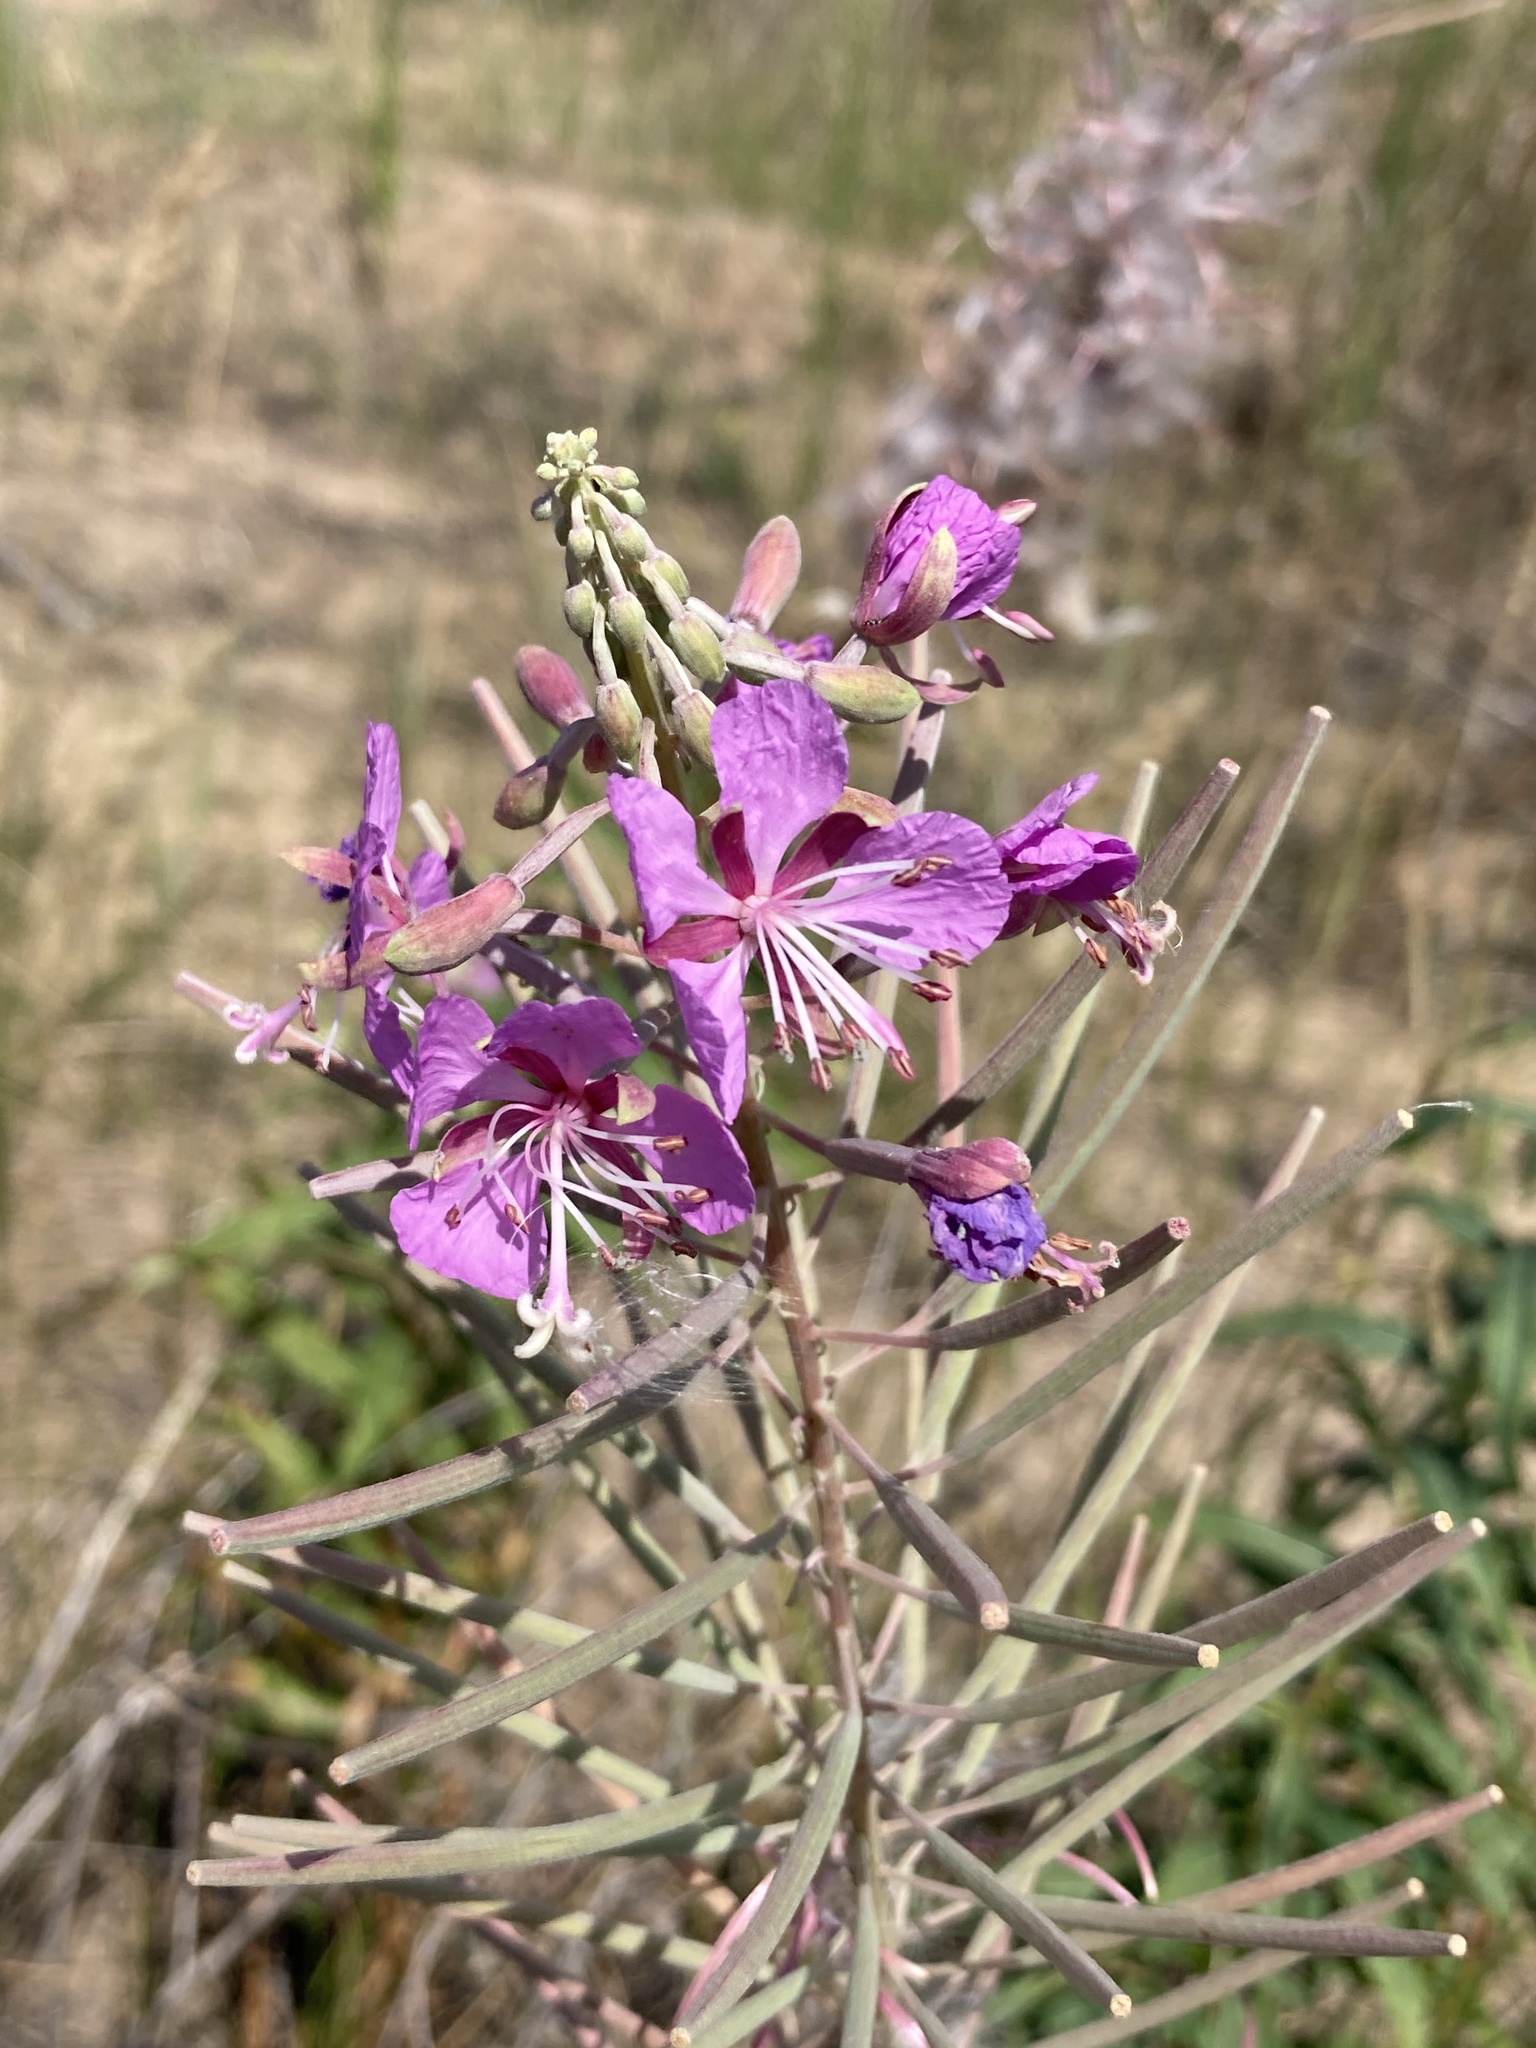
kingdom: Plantae
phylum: Tracheophyta
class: Magnoliopsida
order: Myrtales
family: Onagraceae
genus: Chamaenerion
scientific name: Chamaenerion angustifolium
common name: Fireweed
